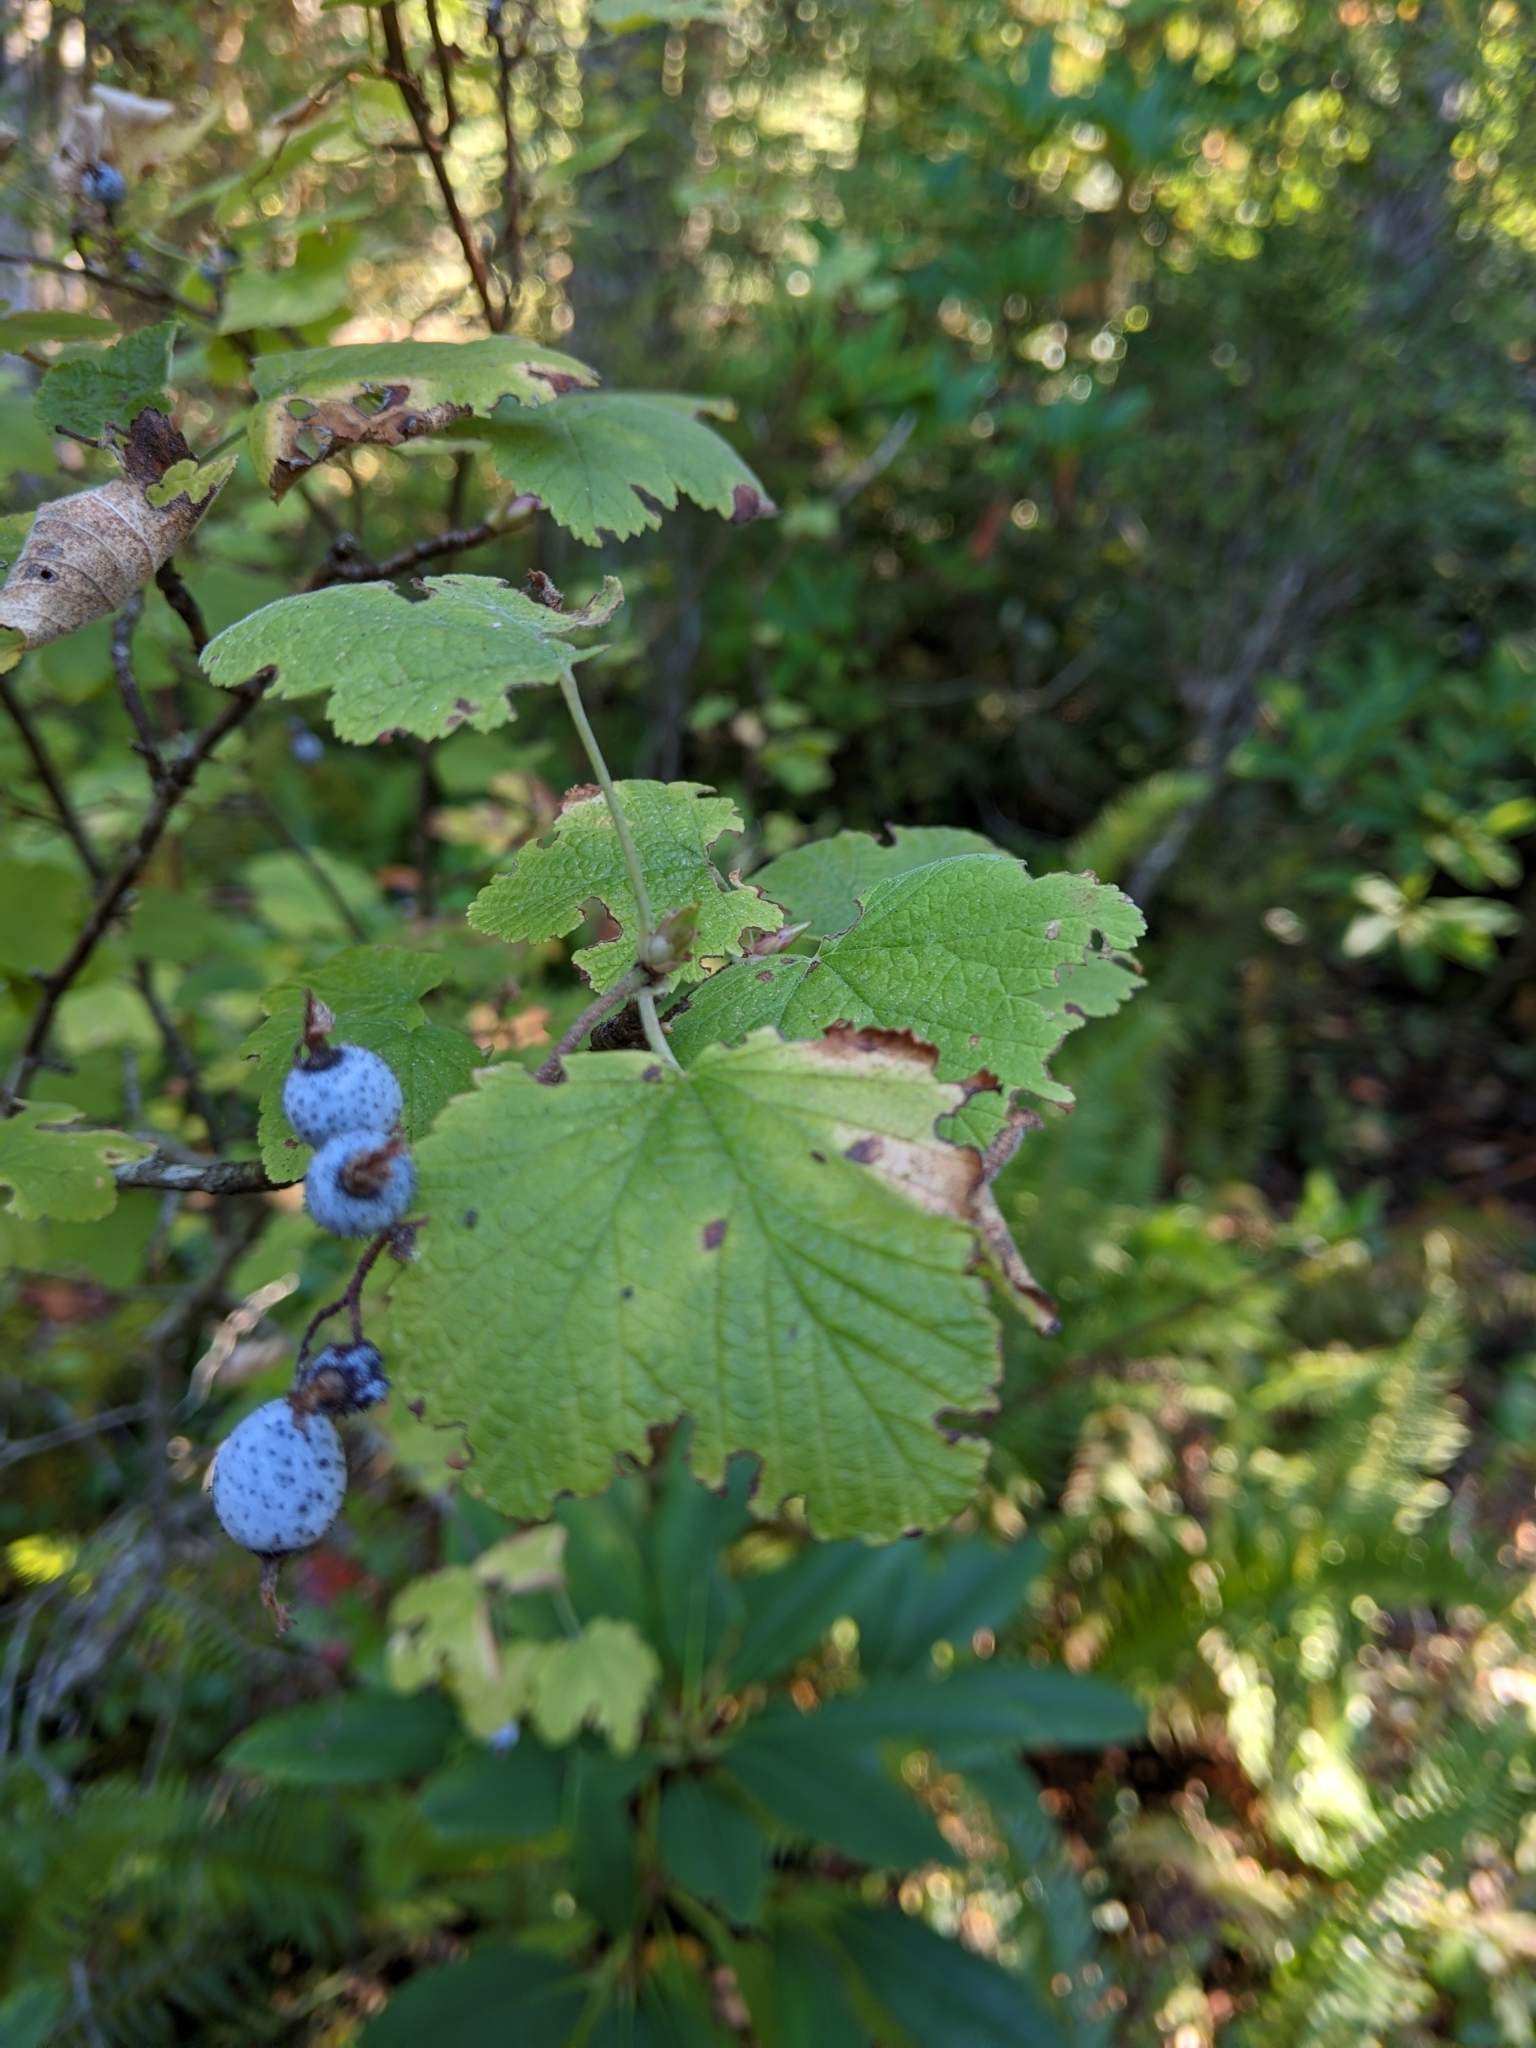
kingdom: Plantae
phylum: Tracheophyta
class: Magnoliopsida
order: Saxifragales
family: Grossulariaceae
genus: Ribes
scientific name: Ribes sanguineum
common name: Flowering currant
